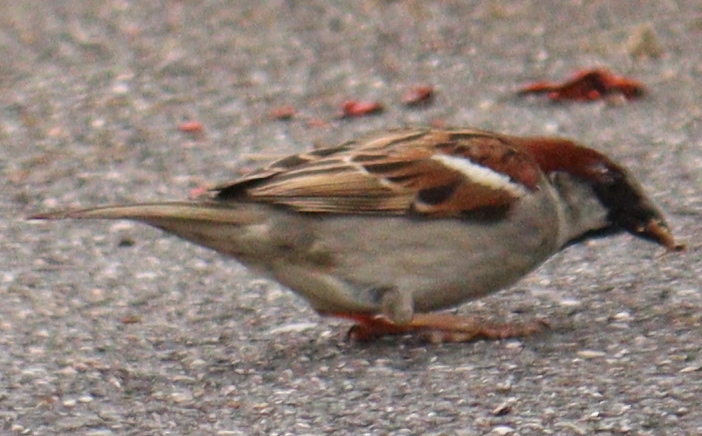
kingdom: Animalia
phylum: Chordata
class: Aves
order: Passeriformes
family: Passeridae
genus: Passer
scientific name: Passer domesticus
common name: House sparrow
